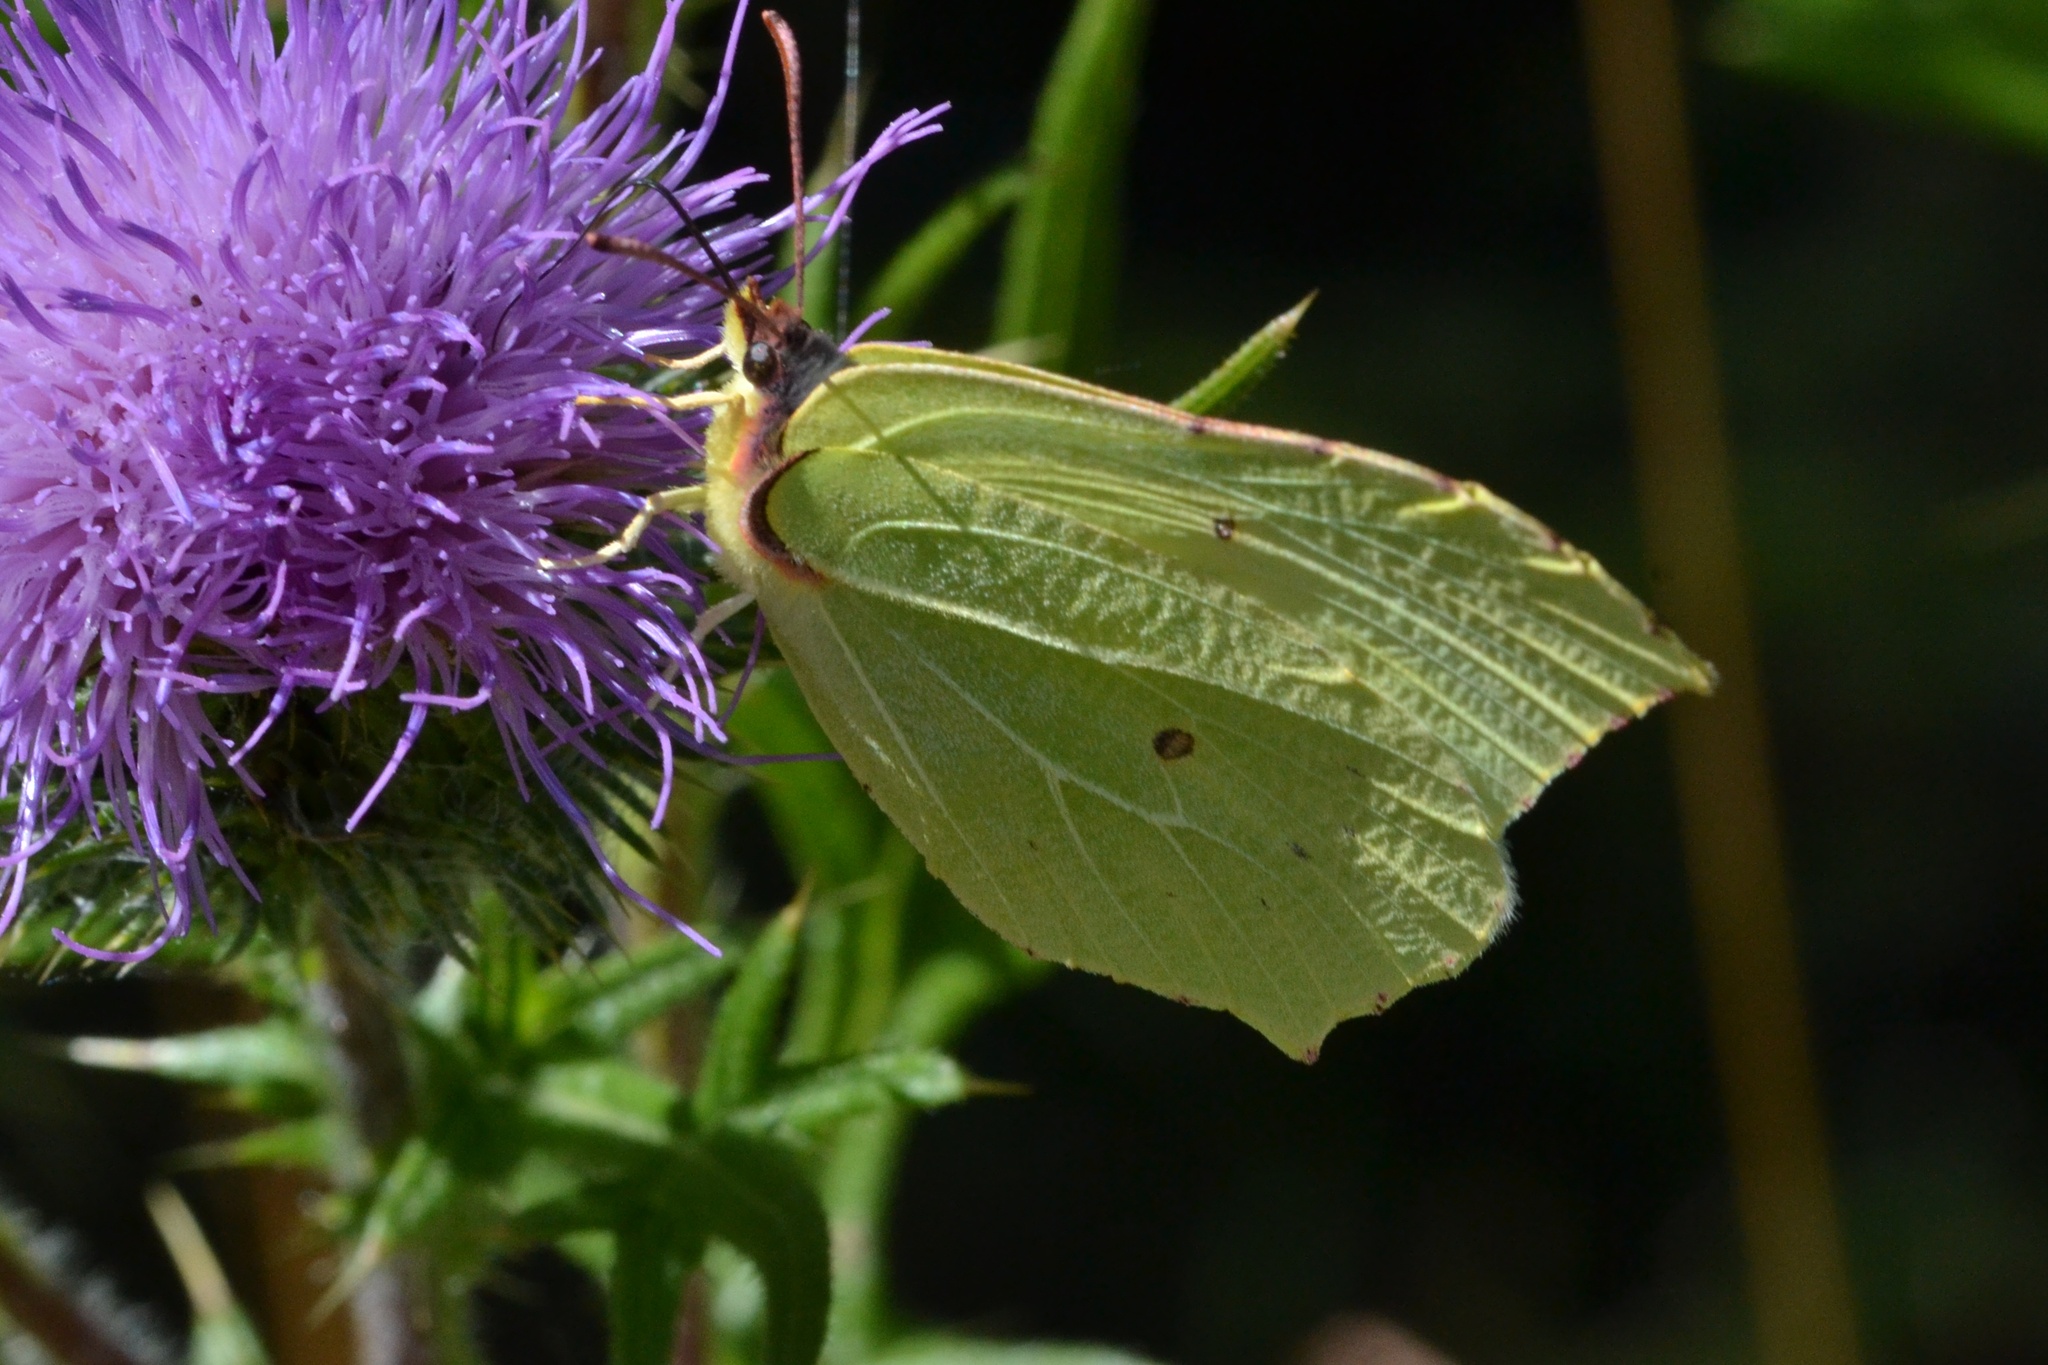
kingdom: Animalia
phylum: Arthropoda
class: Insecta
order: Lepidoptera
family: Pieridae
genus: Gonepteryx
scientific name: Gonepteryx rhamni
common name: Brimstone
